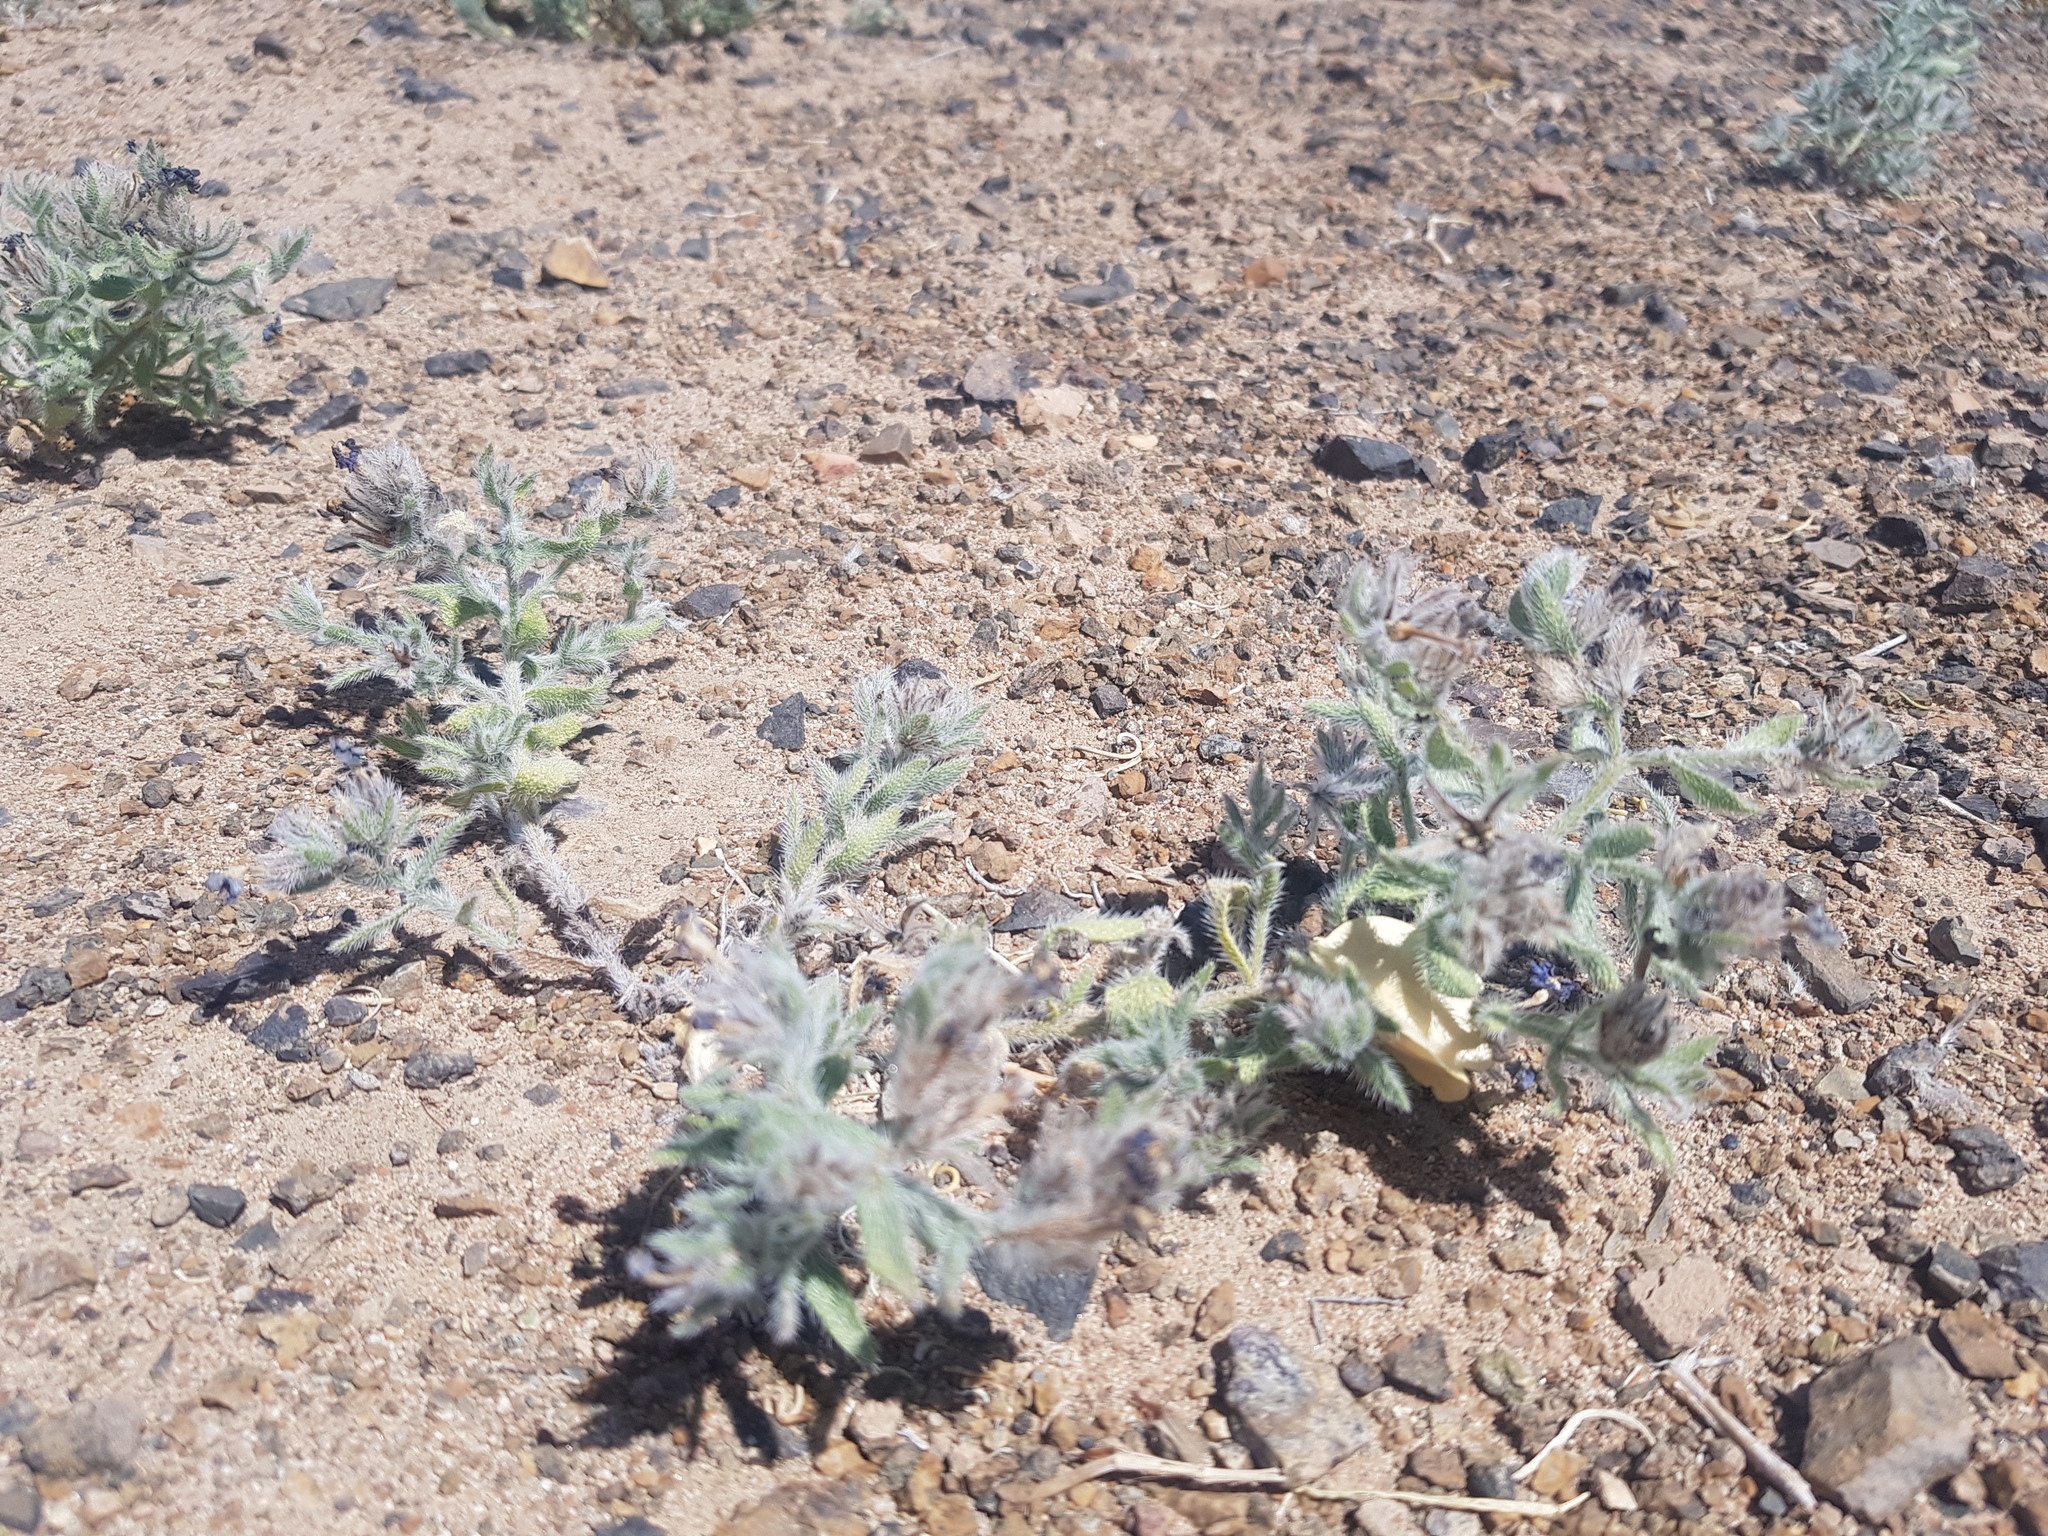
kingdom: Plantae
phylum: Tracheophyta
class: Magnoliopsida
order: Boraginales
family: Boraginaceae
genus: Arnebia
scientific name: Arnebia fimbriata
